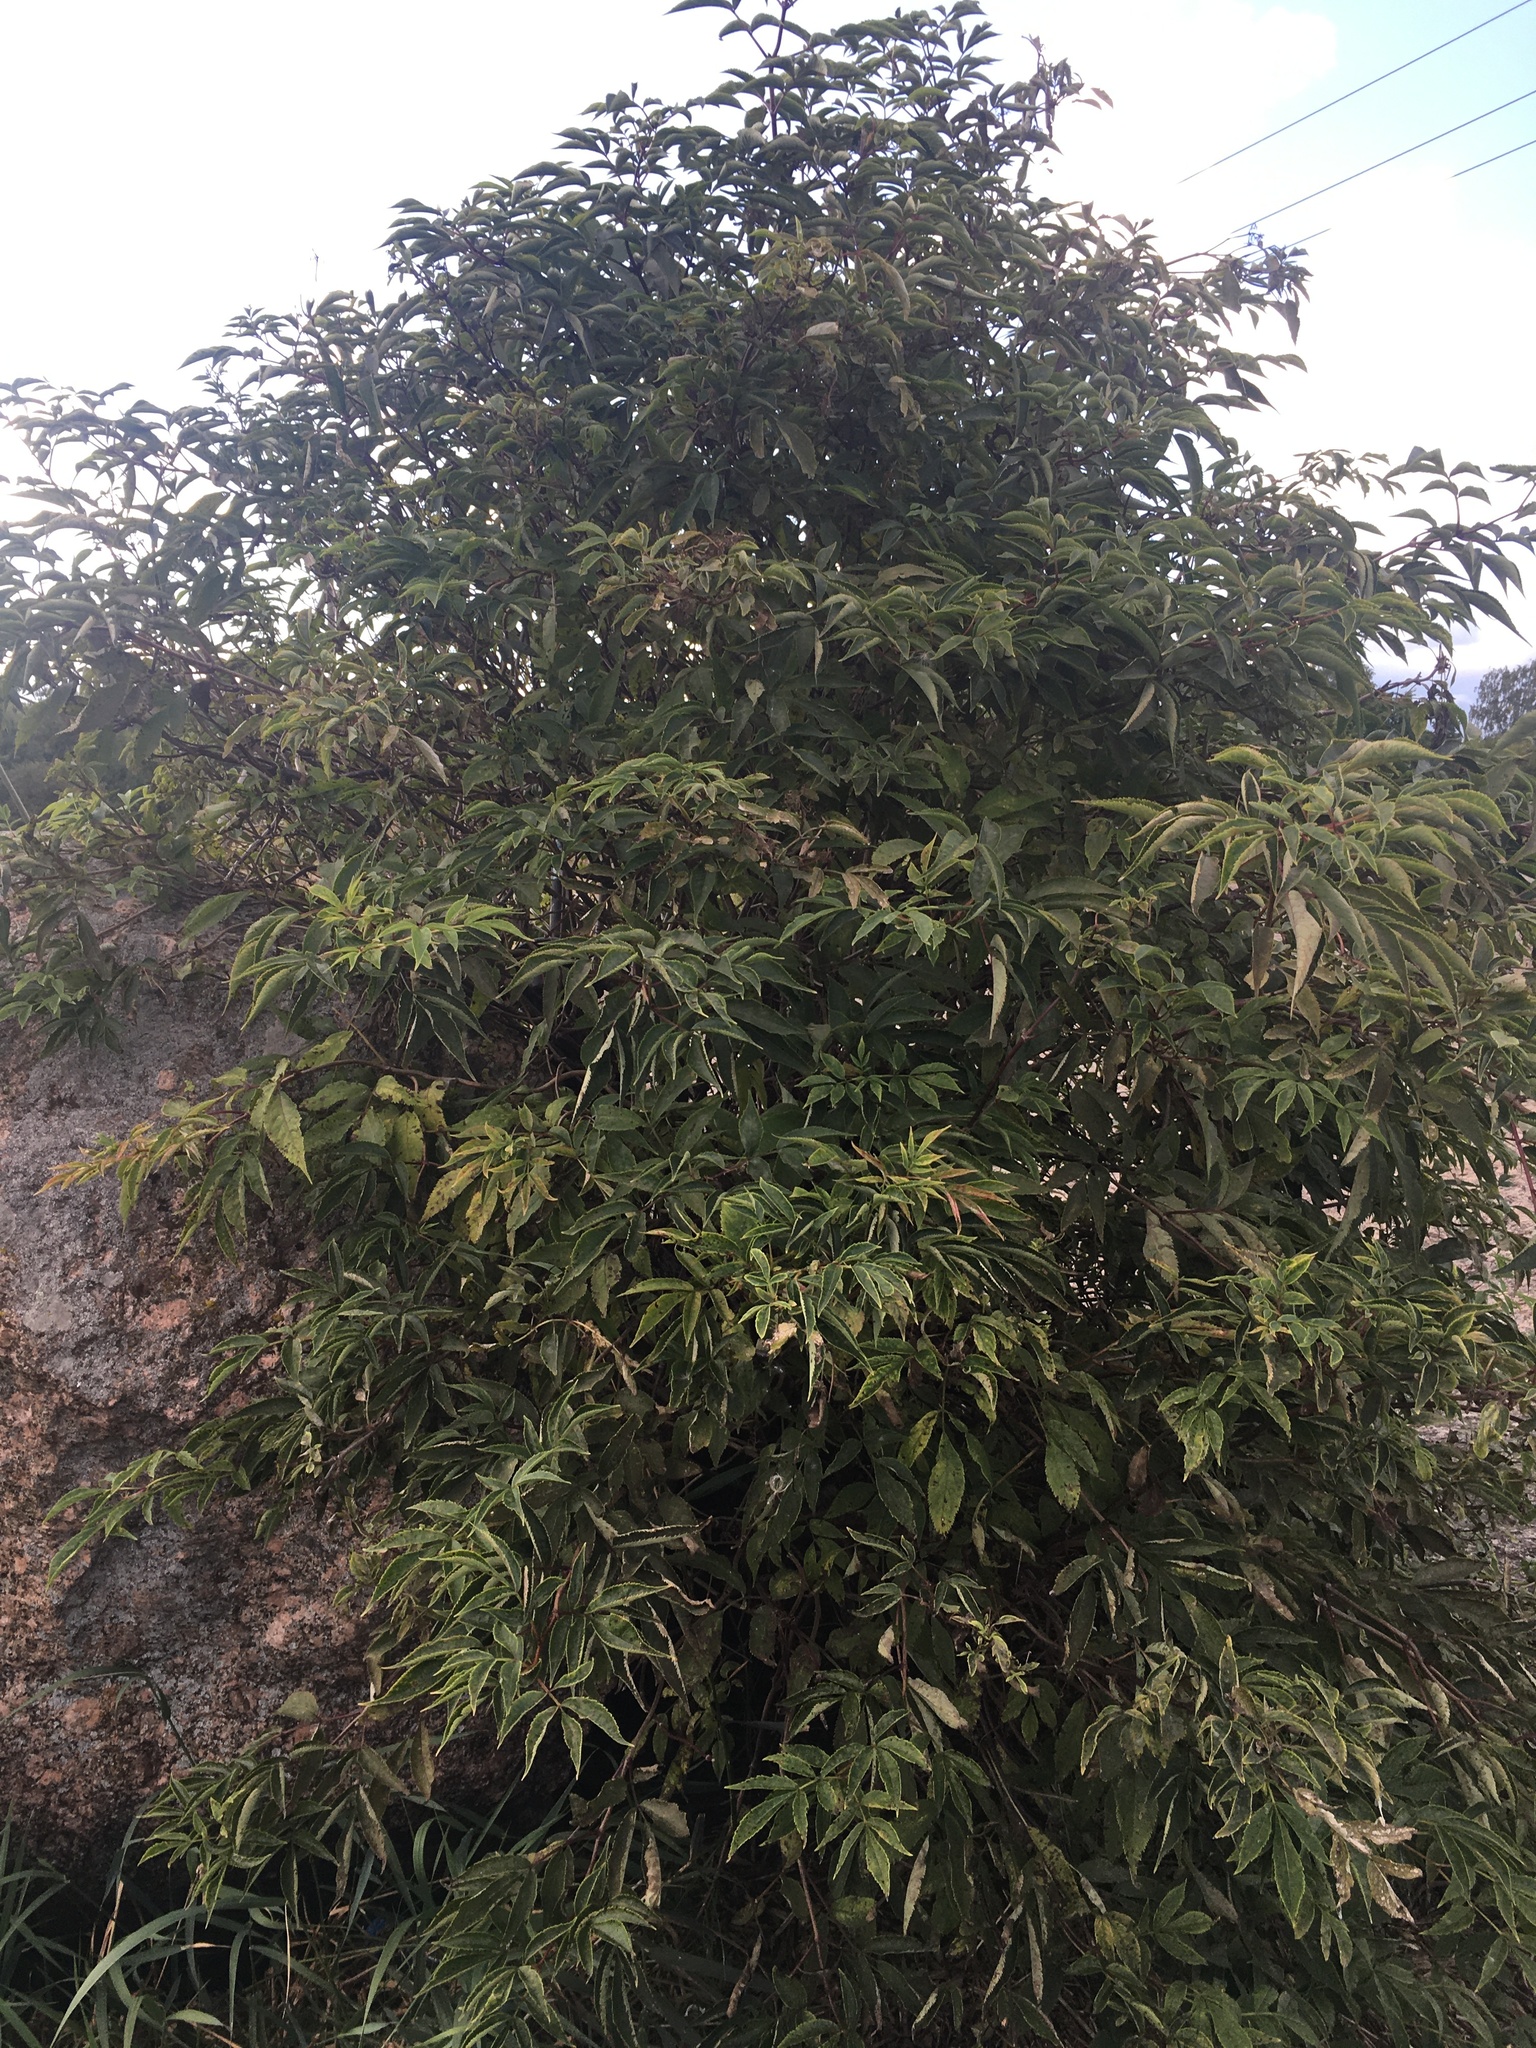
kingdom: Plantae
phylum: Tracheophyta
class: Magnoliopsida
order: Dipsacales
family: Viburnaceae
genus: Sambucus
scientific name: Sambucus racemosa
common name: Red-berried elder
